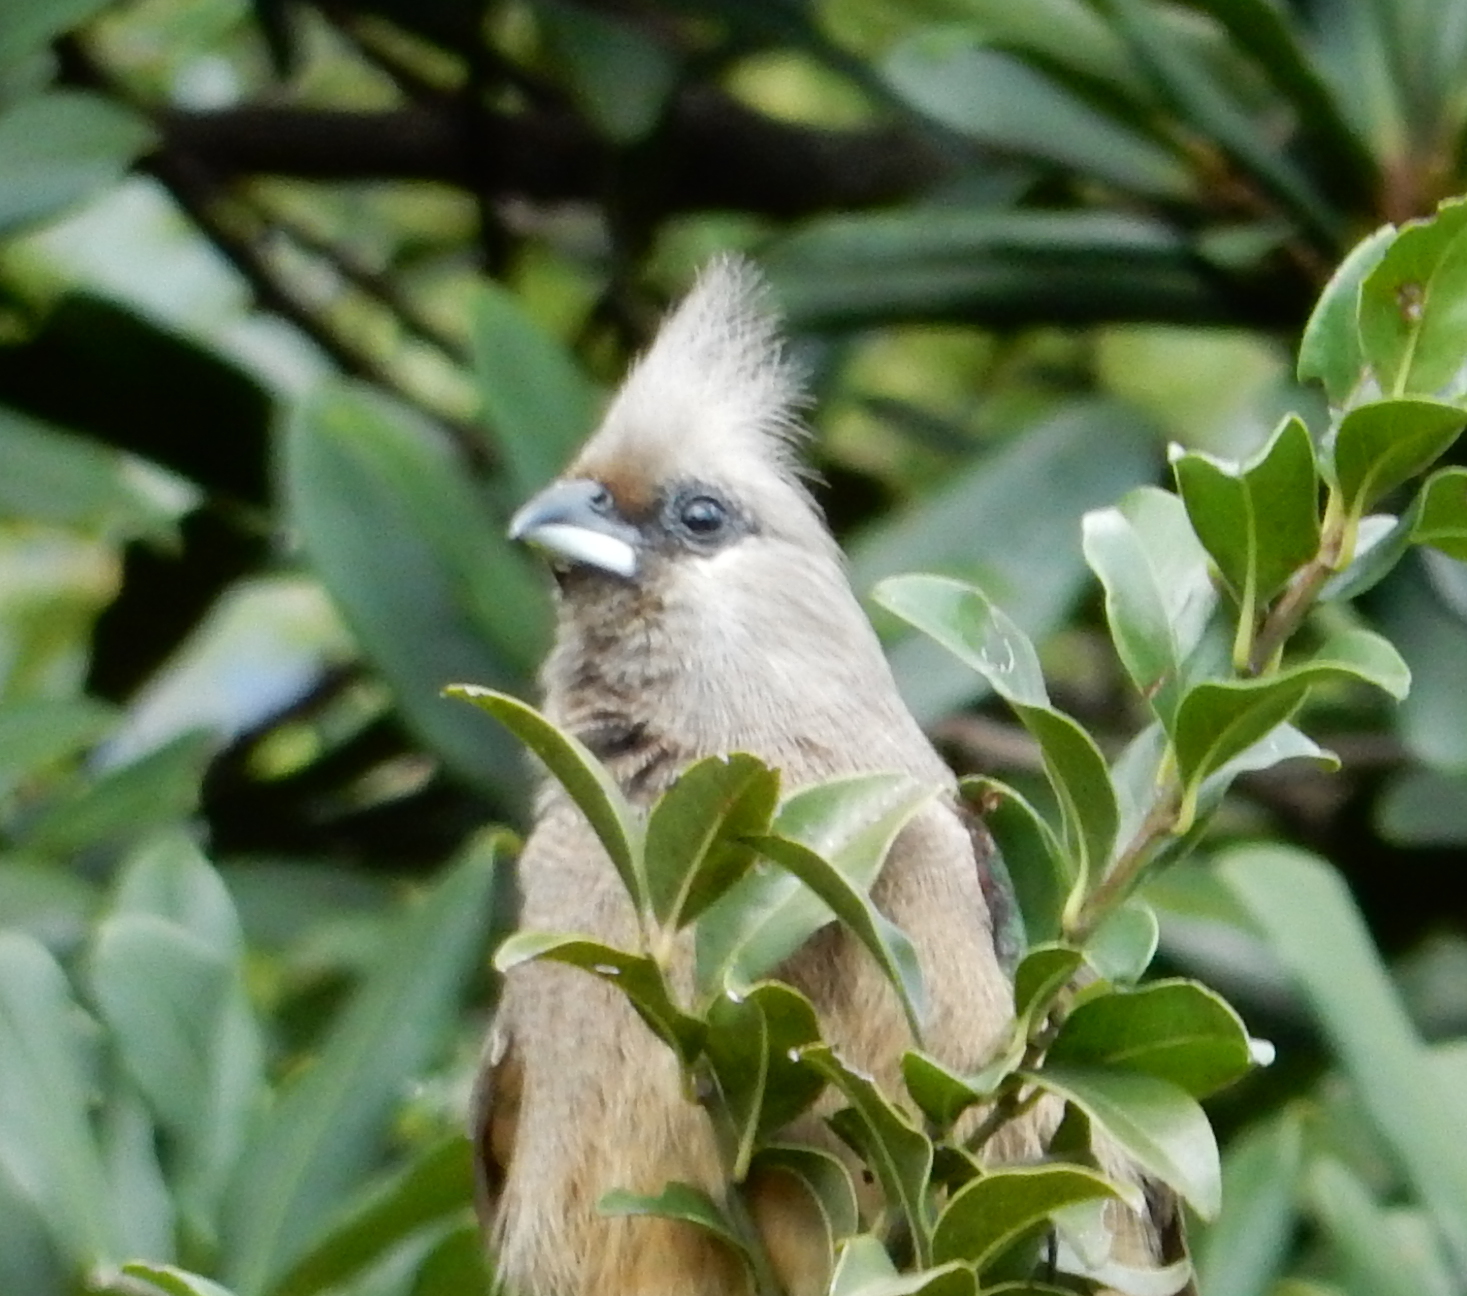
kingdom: Animalia
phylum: Chordata
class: Aves
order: Coliiformes
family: Coliidae
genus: Colius
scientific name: Colius striatus
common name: Speckled mousebird
